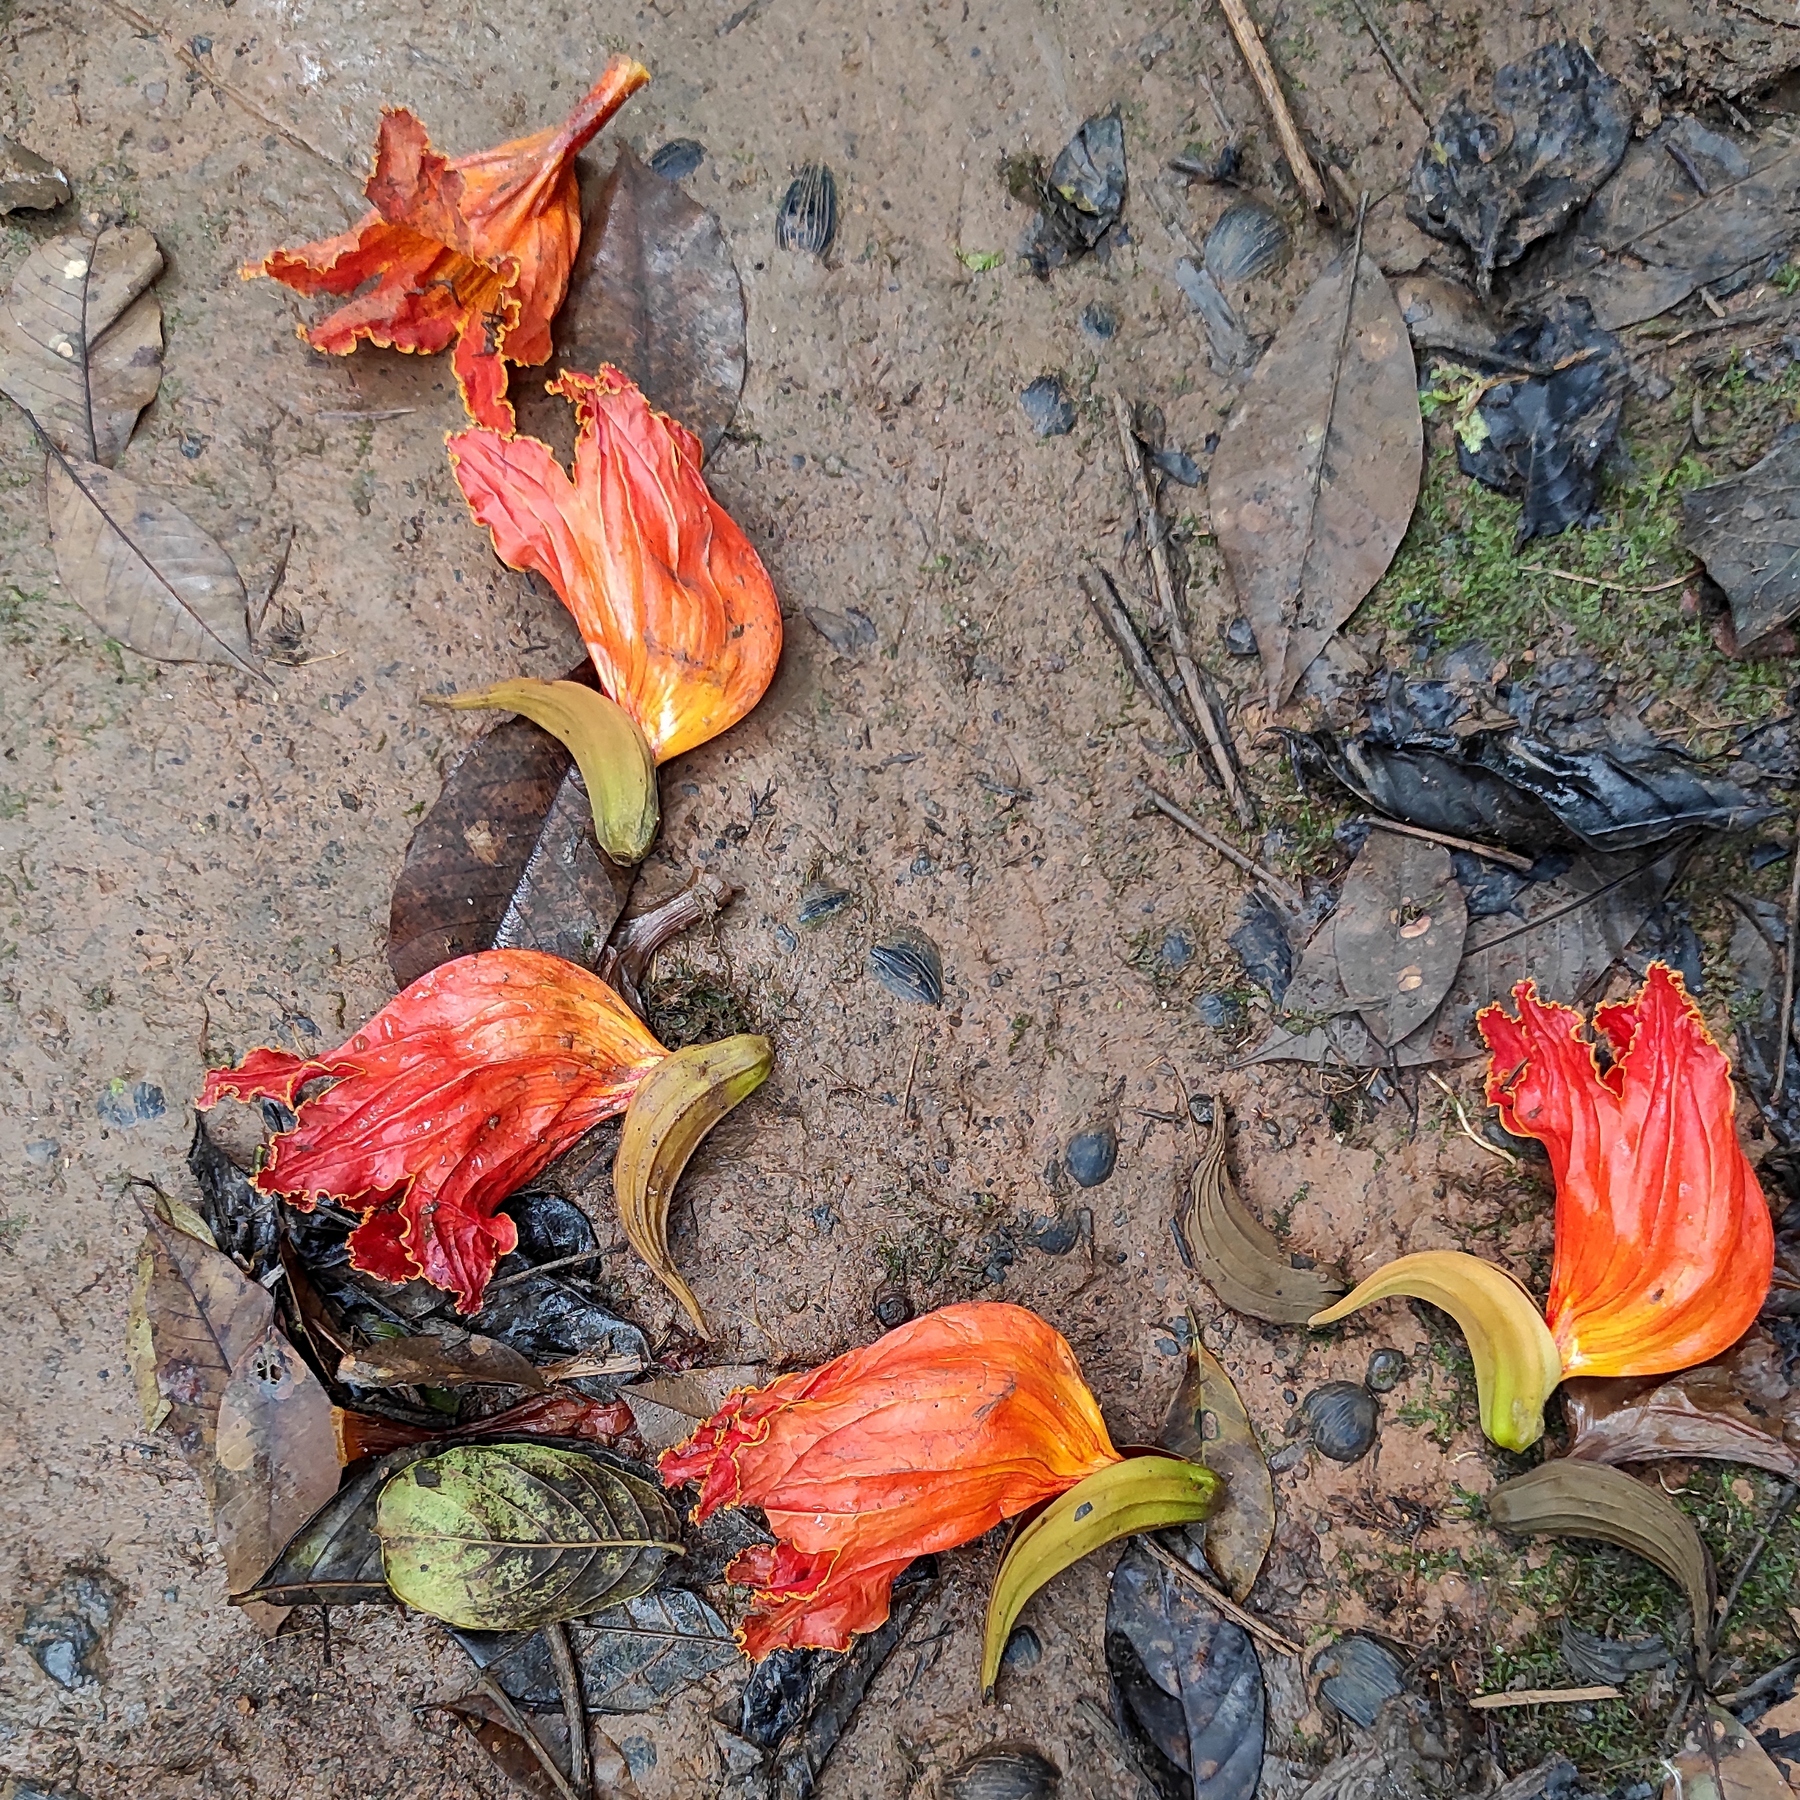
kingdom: Plantae
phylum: Tracheophyta
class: Magnoliopsida
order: Lamiales
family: Bignoniaceae
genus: Spathodea
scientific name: Spathodea campanulata
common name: African tuliptree
